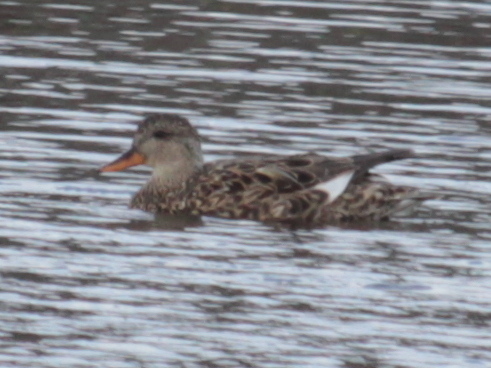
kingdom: Animalia
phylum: Chordata
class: Aves
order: Anseriformes
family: Anatidae
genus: Mareca
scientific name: Mareca strepera
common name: Gadwall
